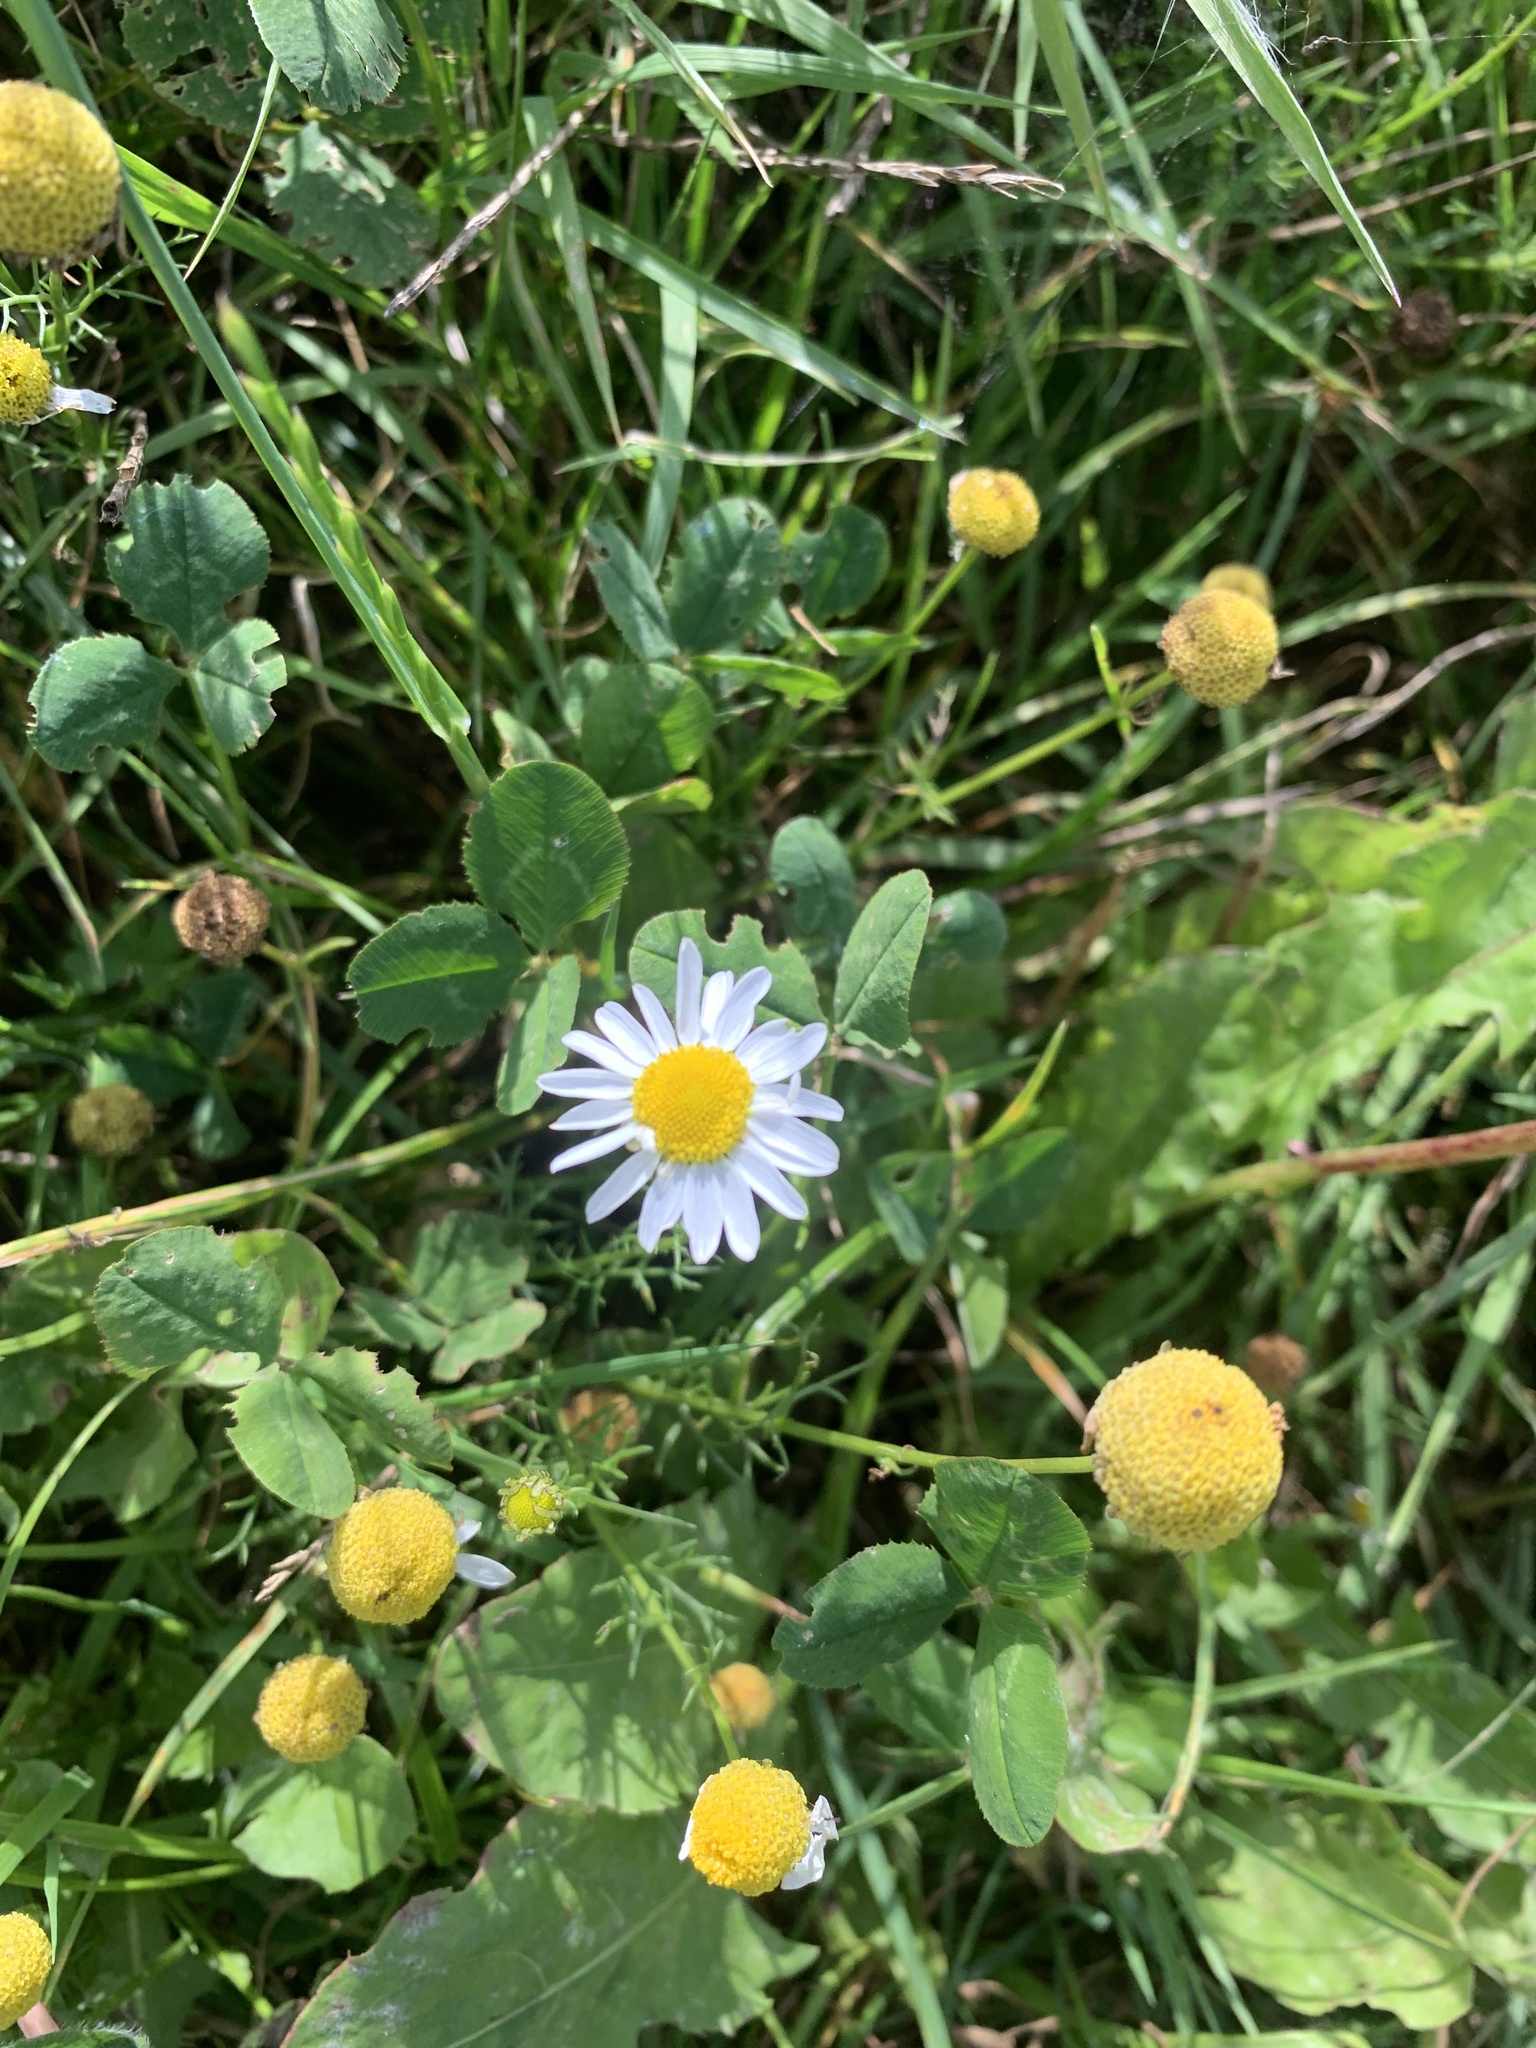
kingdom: Plantae
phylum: Tracheophyta
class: Magnoliopsida
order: Asterales
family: Asteraceae
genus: Tripleurospermum
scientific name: Tripleurospermum inodorum
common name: Scentless mayweed
